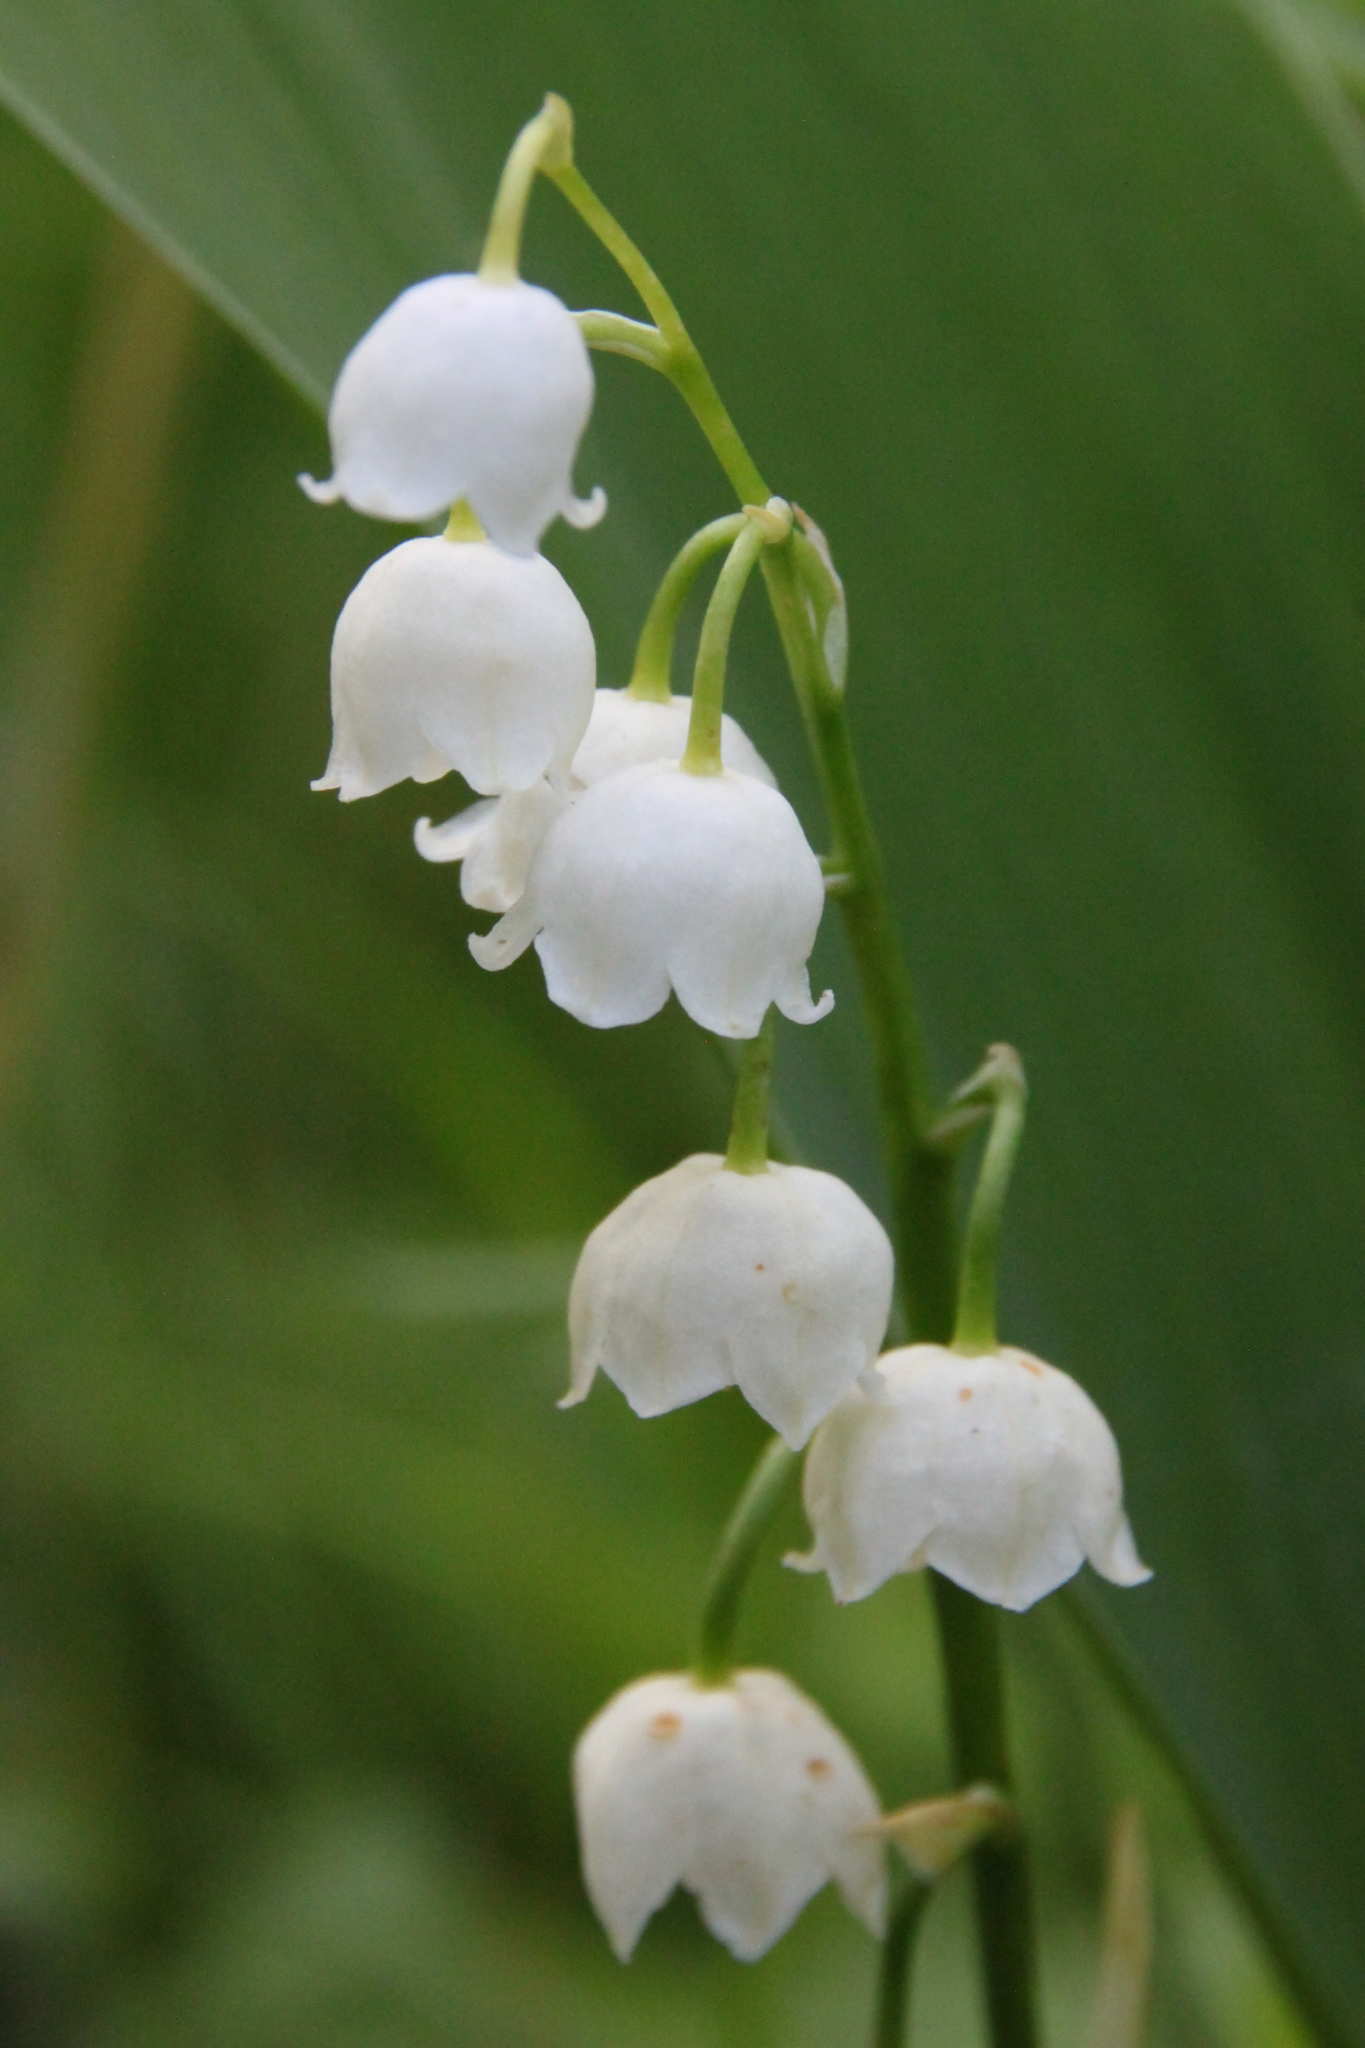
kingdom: Plantae
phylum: Tracheophyta
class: Liliopsida
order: Asparagales
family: Asparagaceae
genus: Convallaria
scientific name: Convallaria majalis
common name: Lily-of-the-valley
